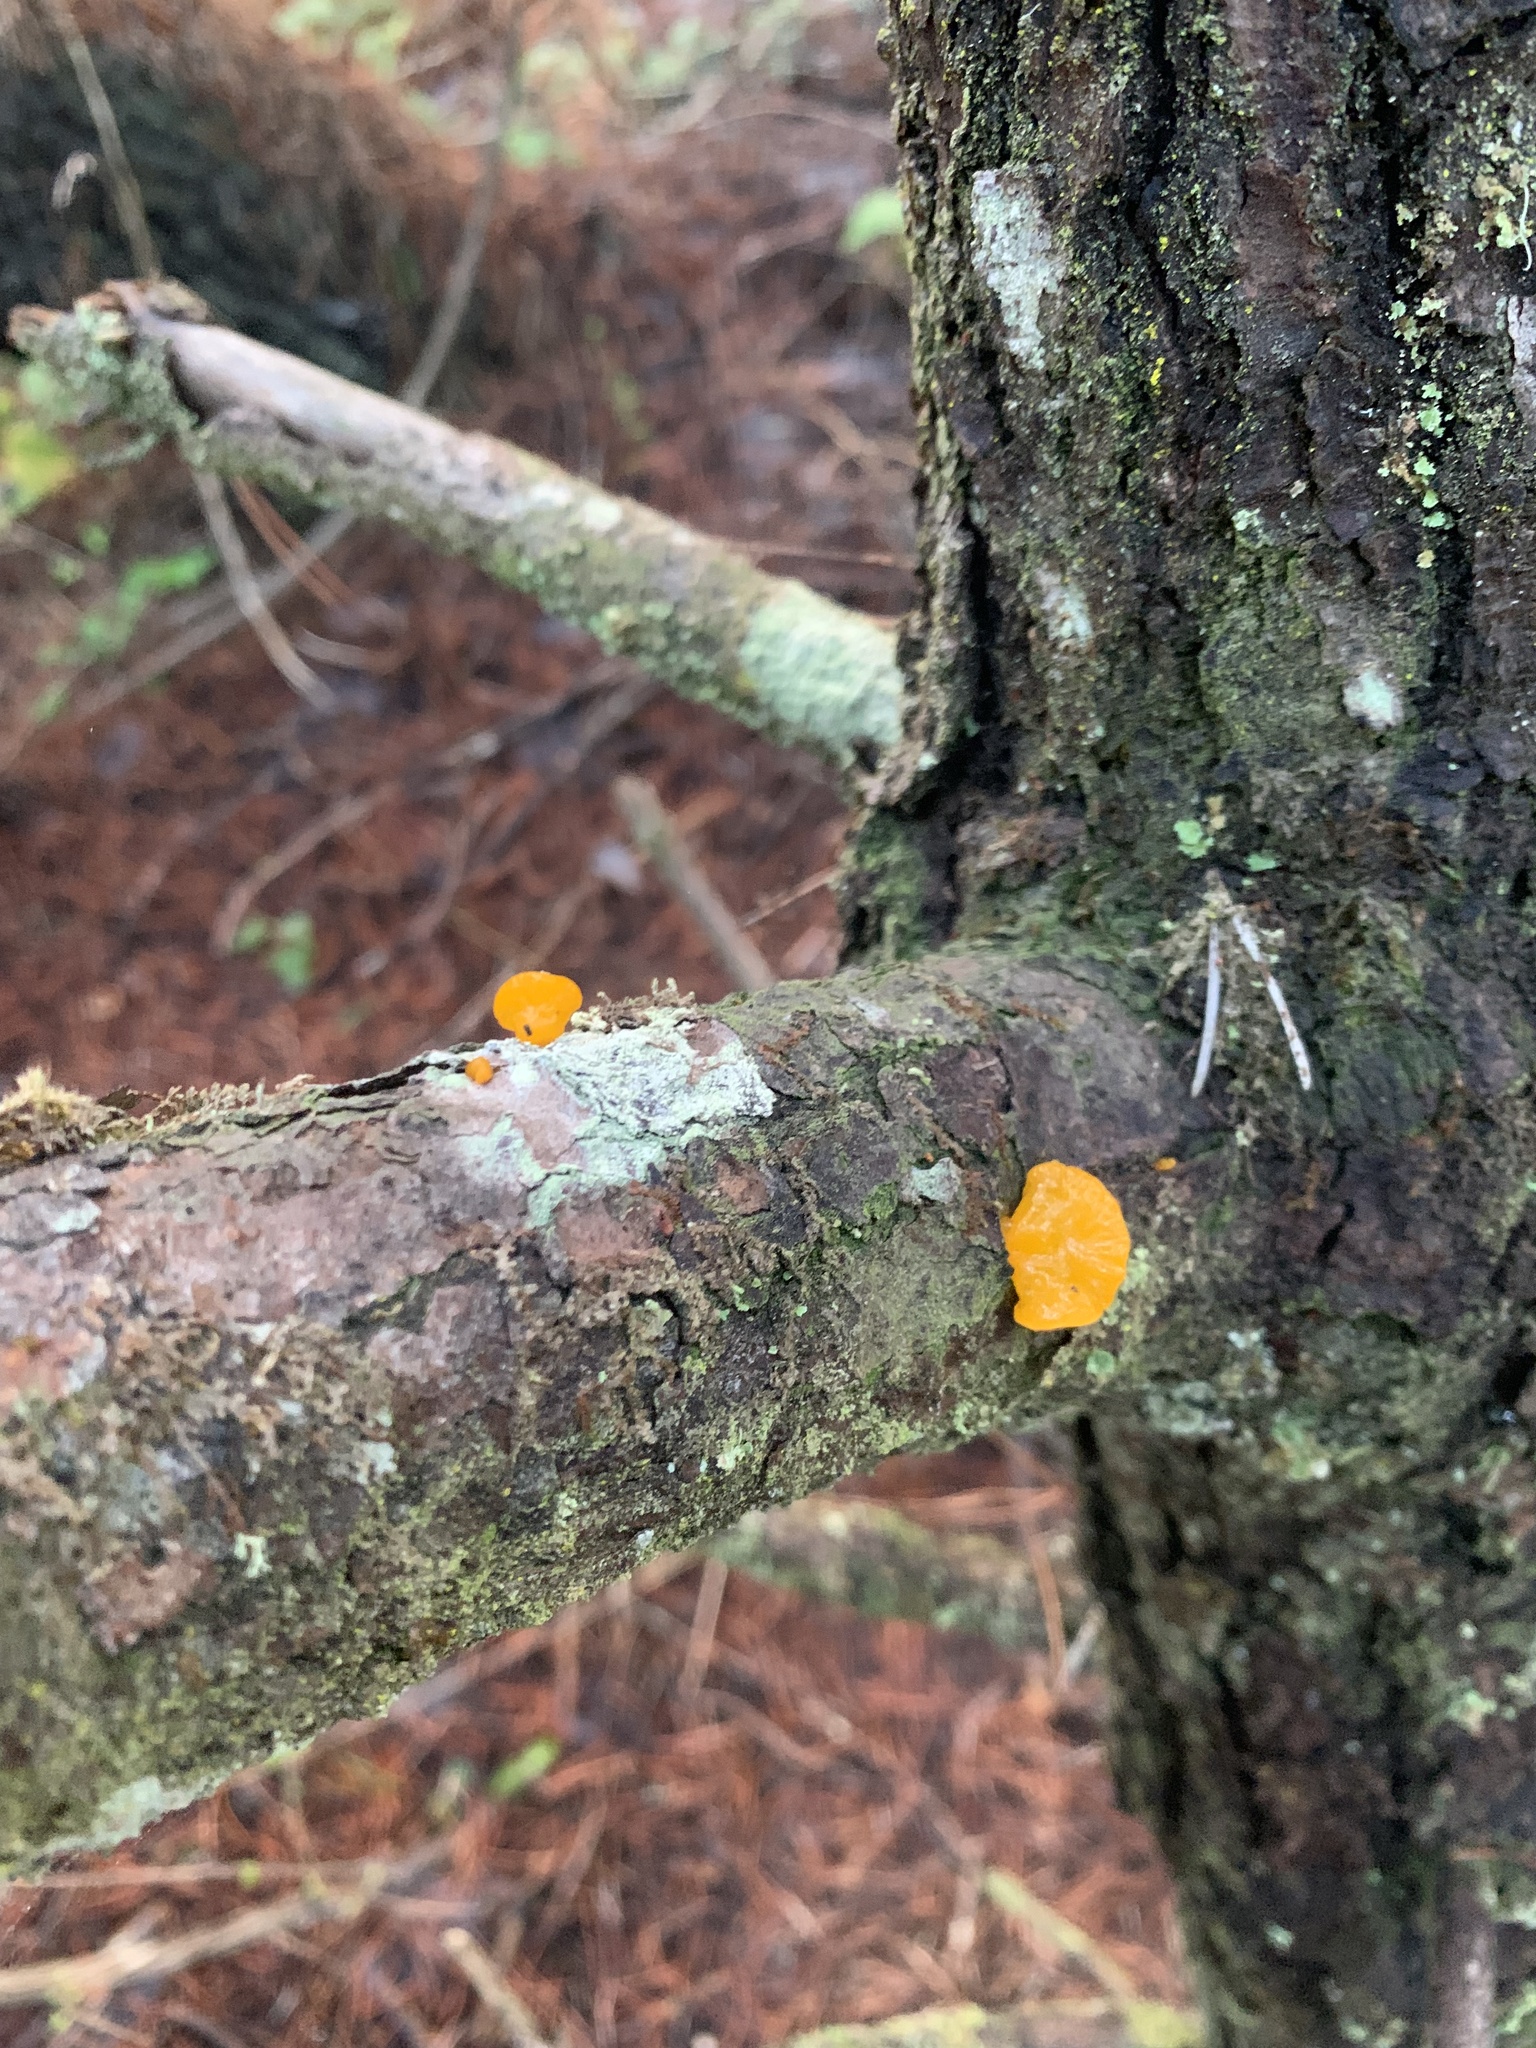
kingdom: Fungi
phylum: Basidiomycota
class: Dacrymycetes
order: Dacrymycetales
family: Dacrymycetaceae
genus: Dacrymyces
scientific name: Dacrymyces chrysospermus
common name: Orange jelly spot
